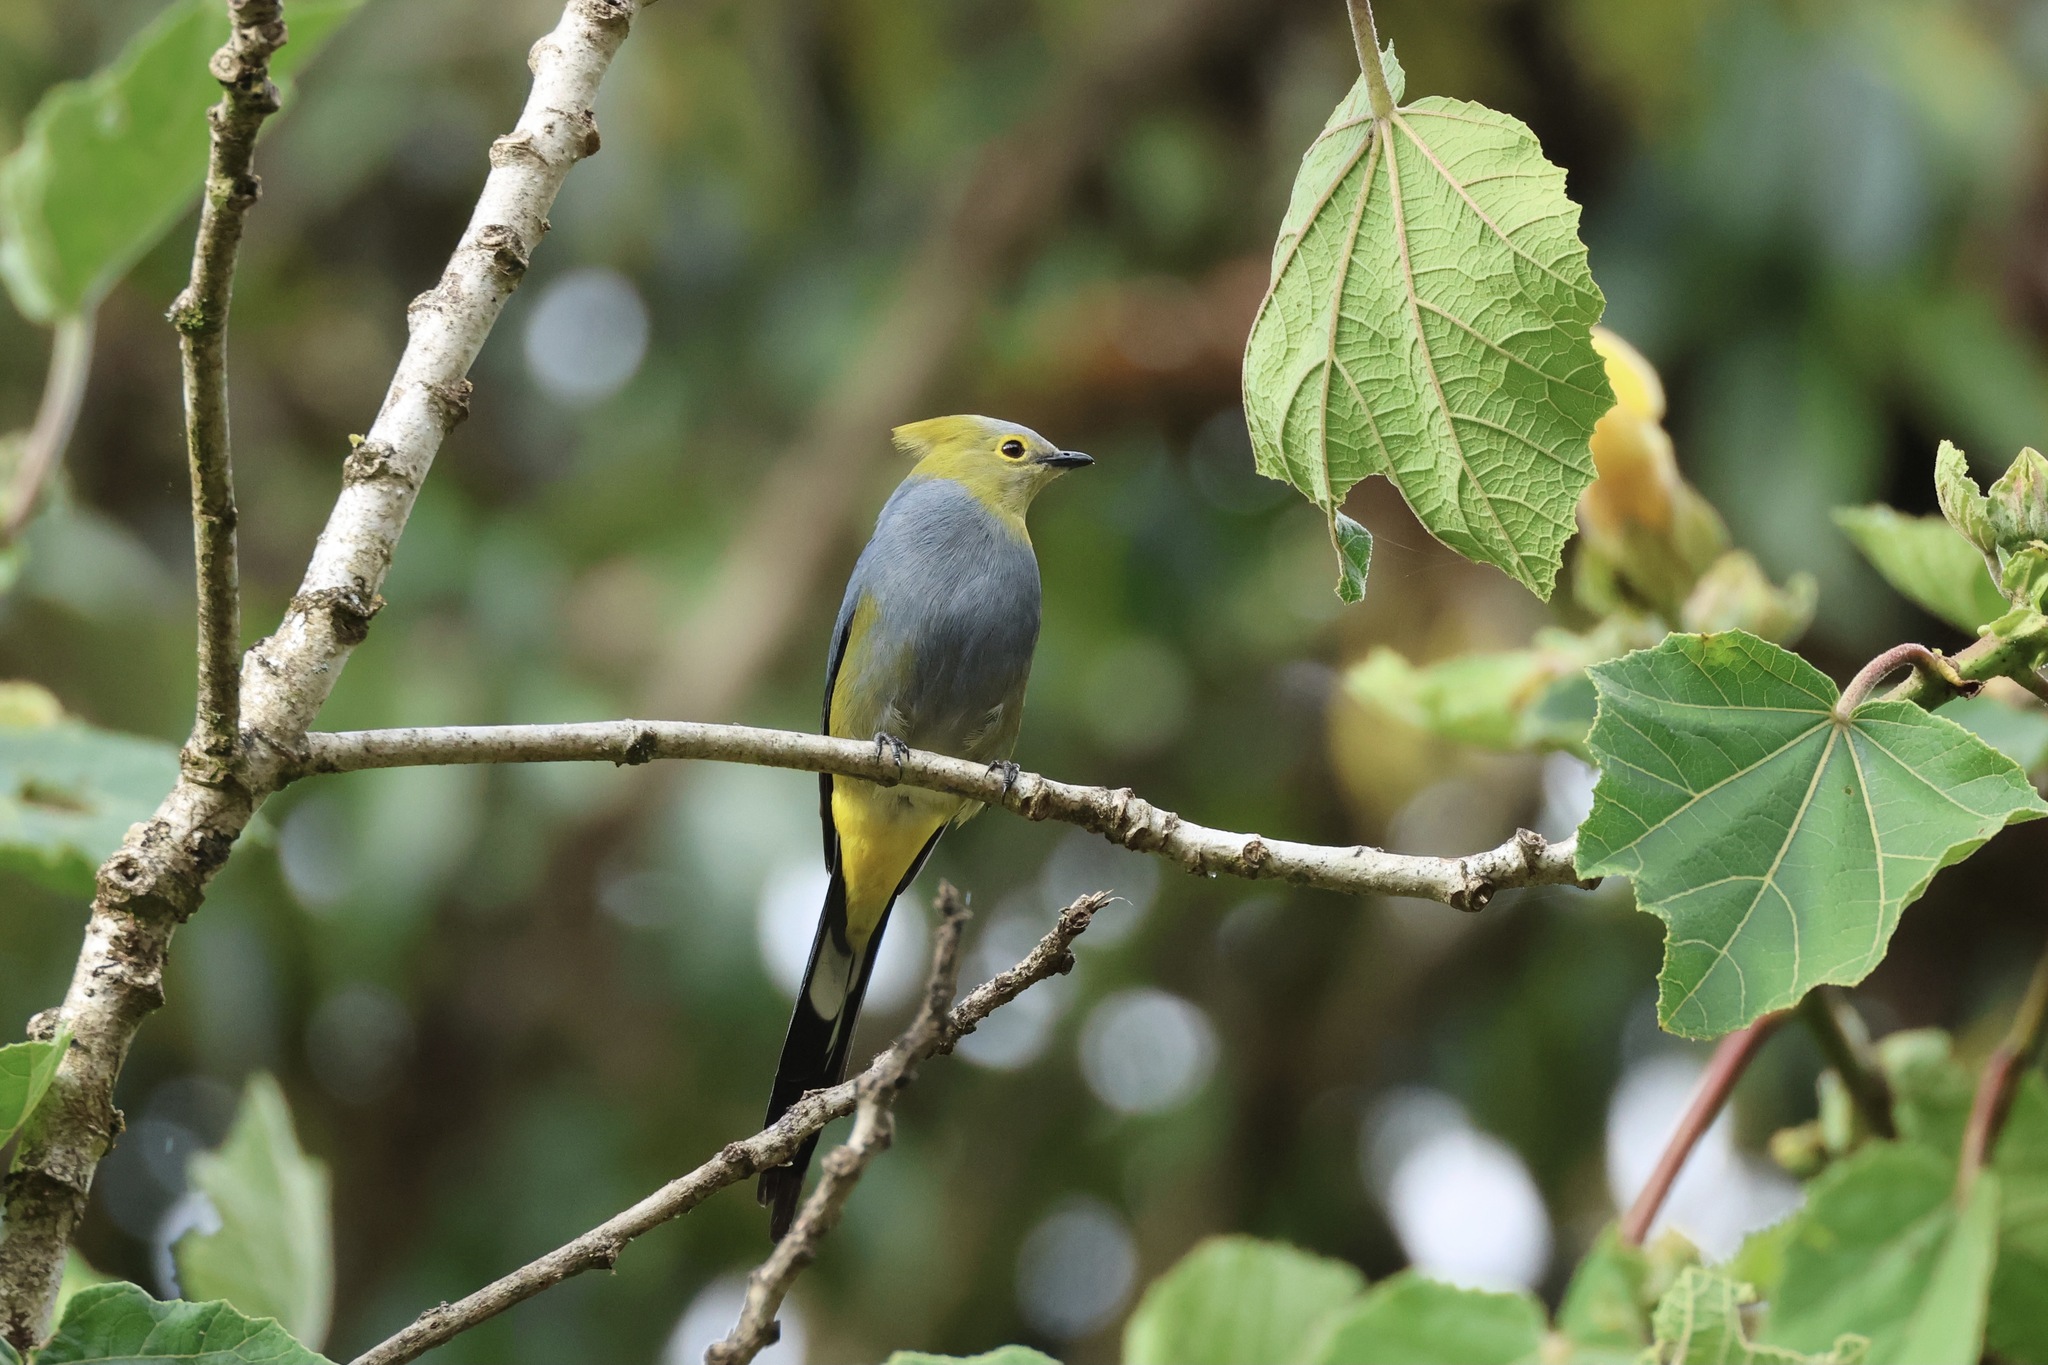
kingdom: Animalia
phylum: Chordata
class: Aves
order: Passeriformes
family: Ptilogonatidae
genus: Ptilogonys
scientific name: Ptilogonys caudatus
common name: Long-tailed silky-flycatcher
